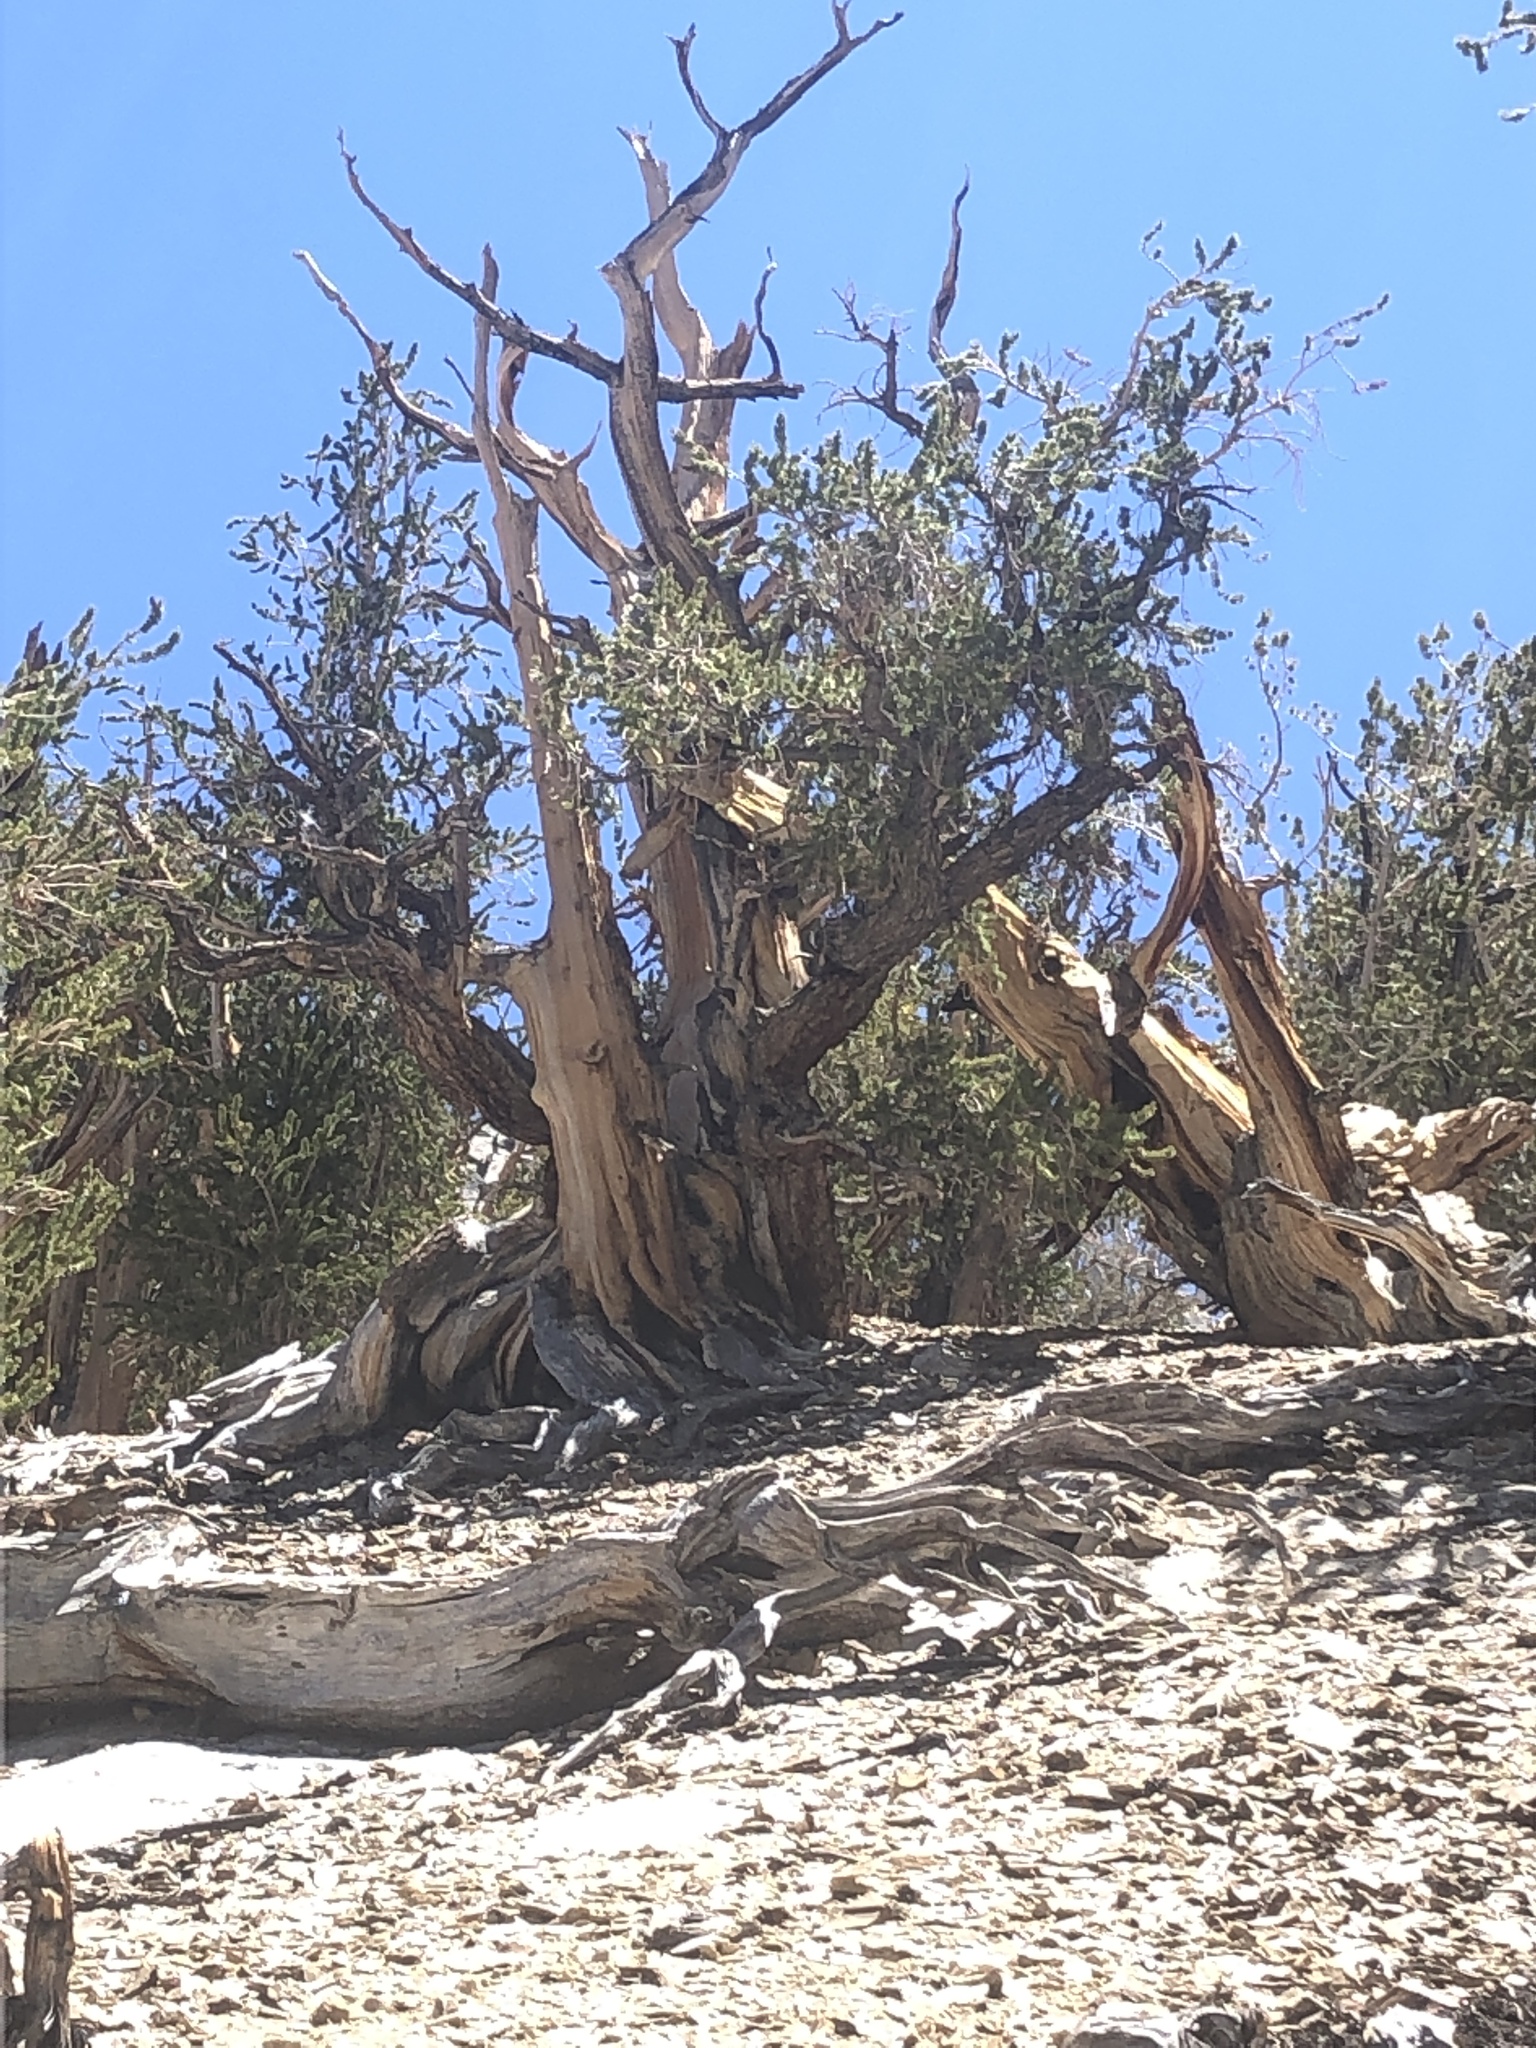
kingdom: Plantae
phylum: Tracheophyta
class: Pinopsida
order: Pinales
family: Pinaceae
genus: Pinus
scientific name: Pinus longaeva
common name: Intermountain bristlecone pine
